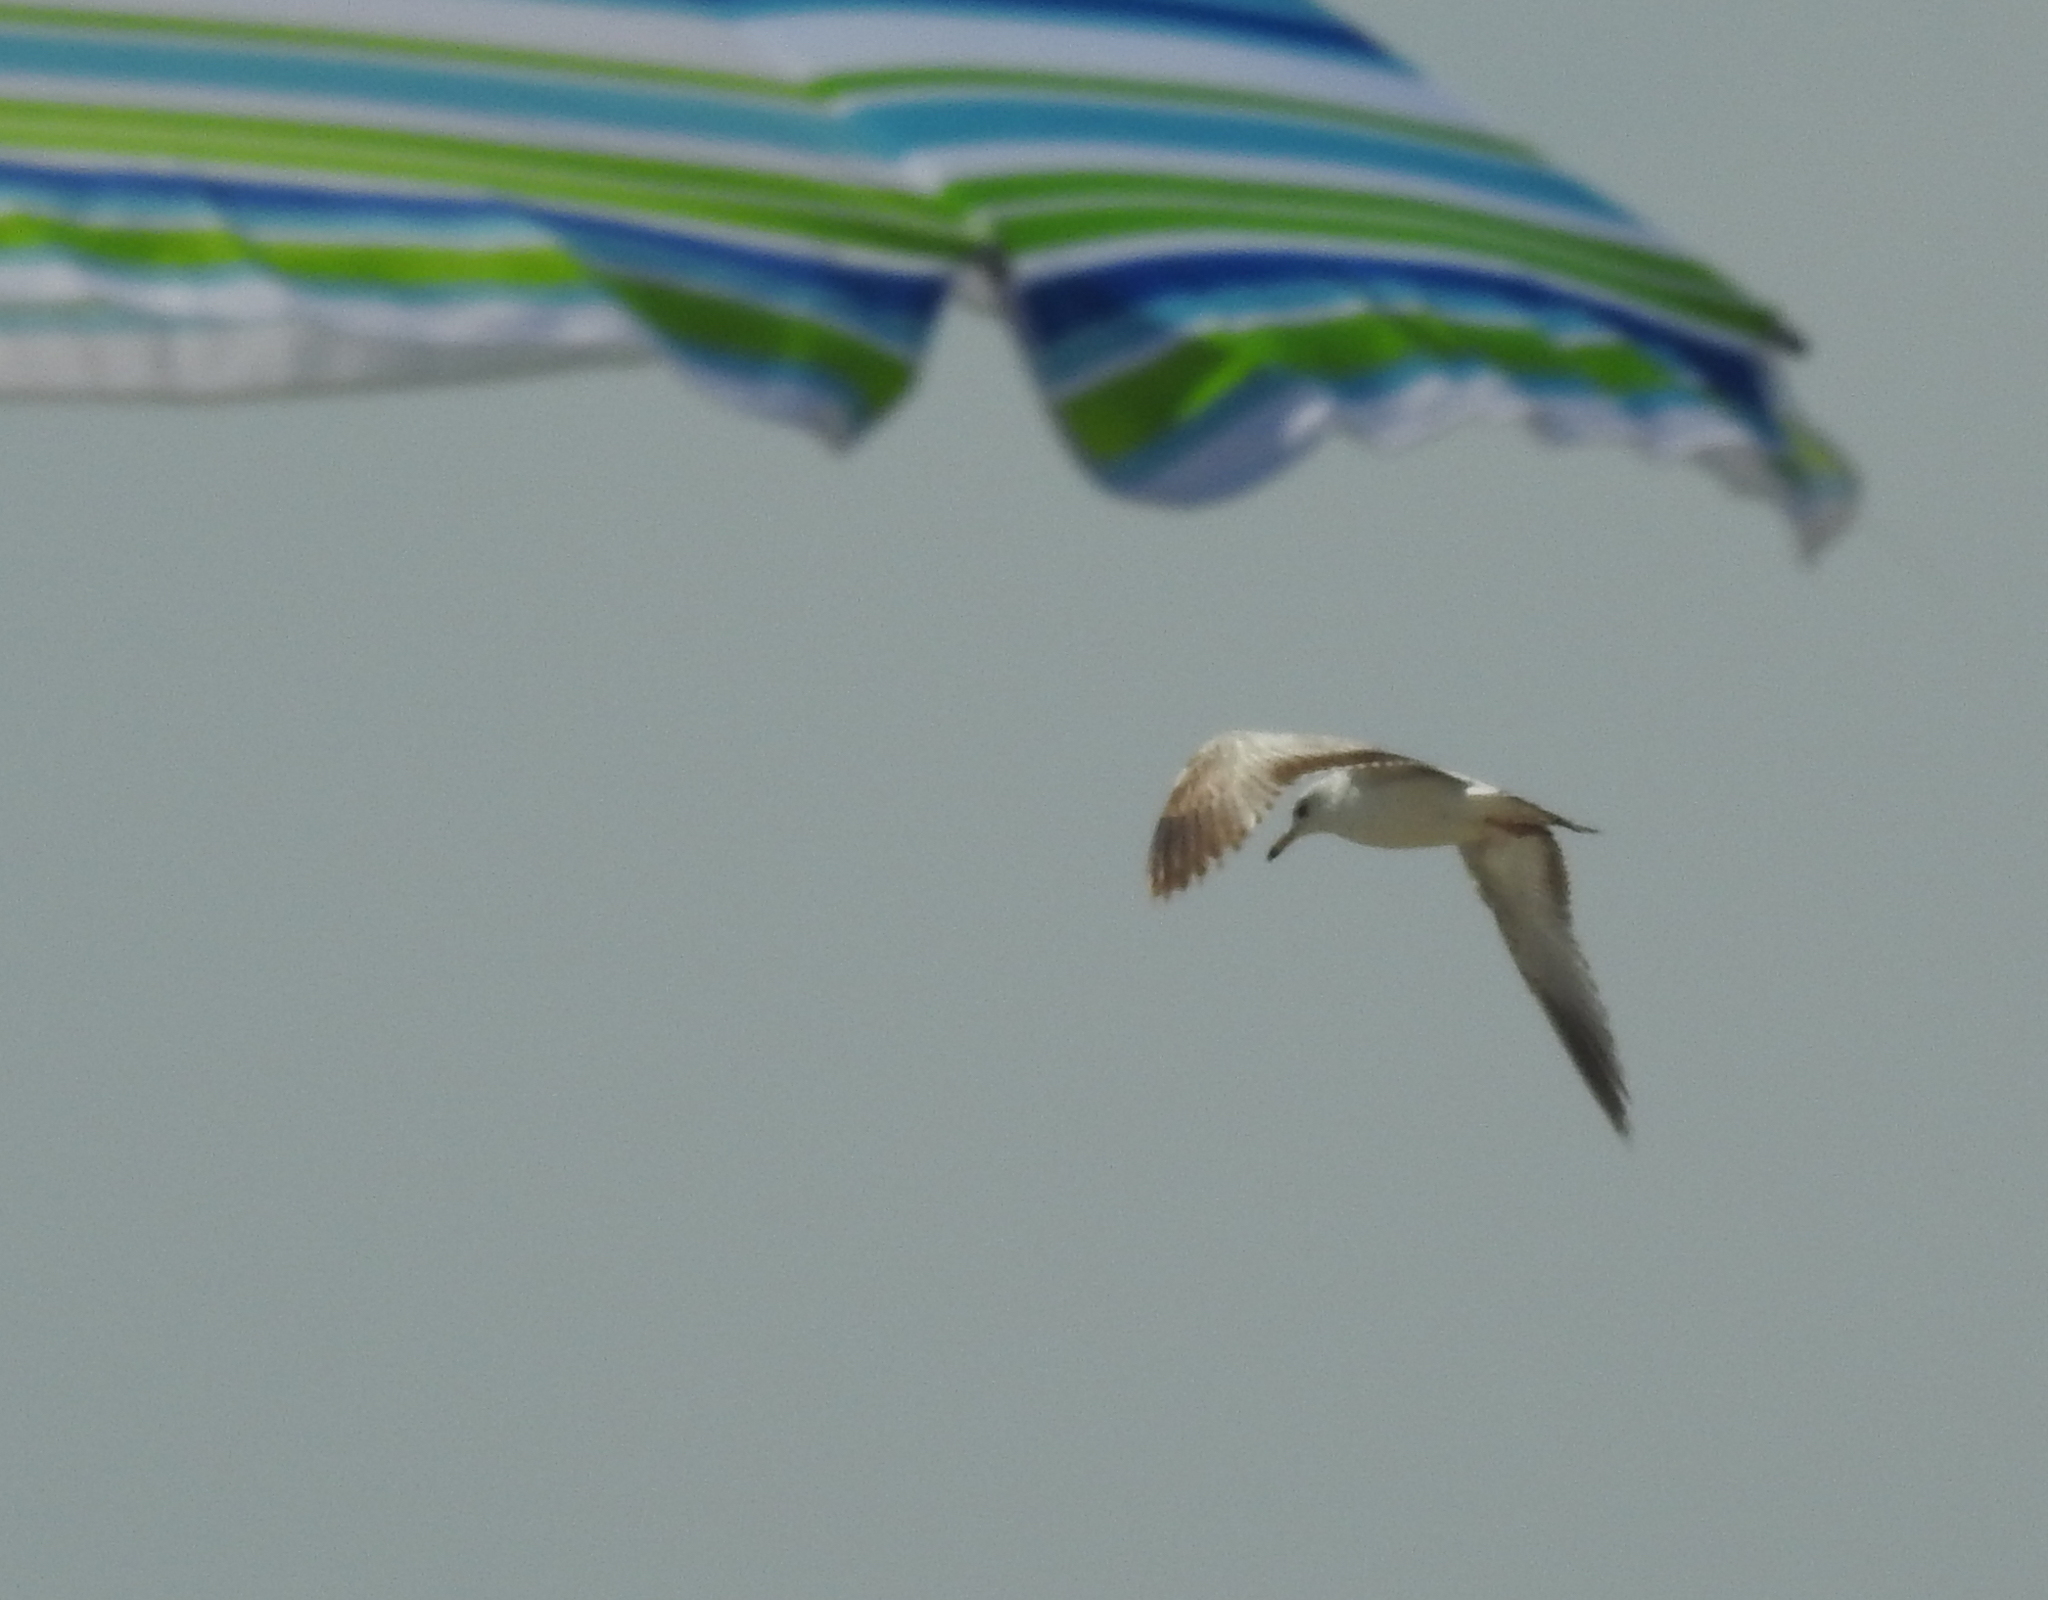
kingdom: Animalia
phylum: Chordata
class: Aves
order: Charadriiformes
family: Laridae
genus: Larus
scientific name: Larus delawarensis
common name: Ring-billed gull
